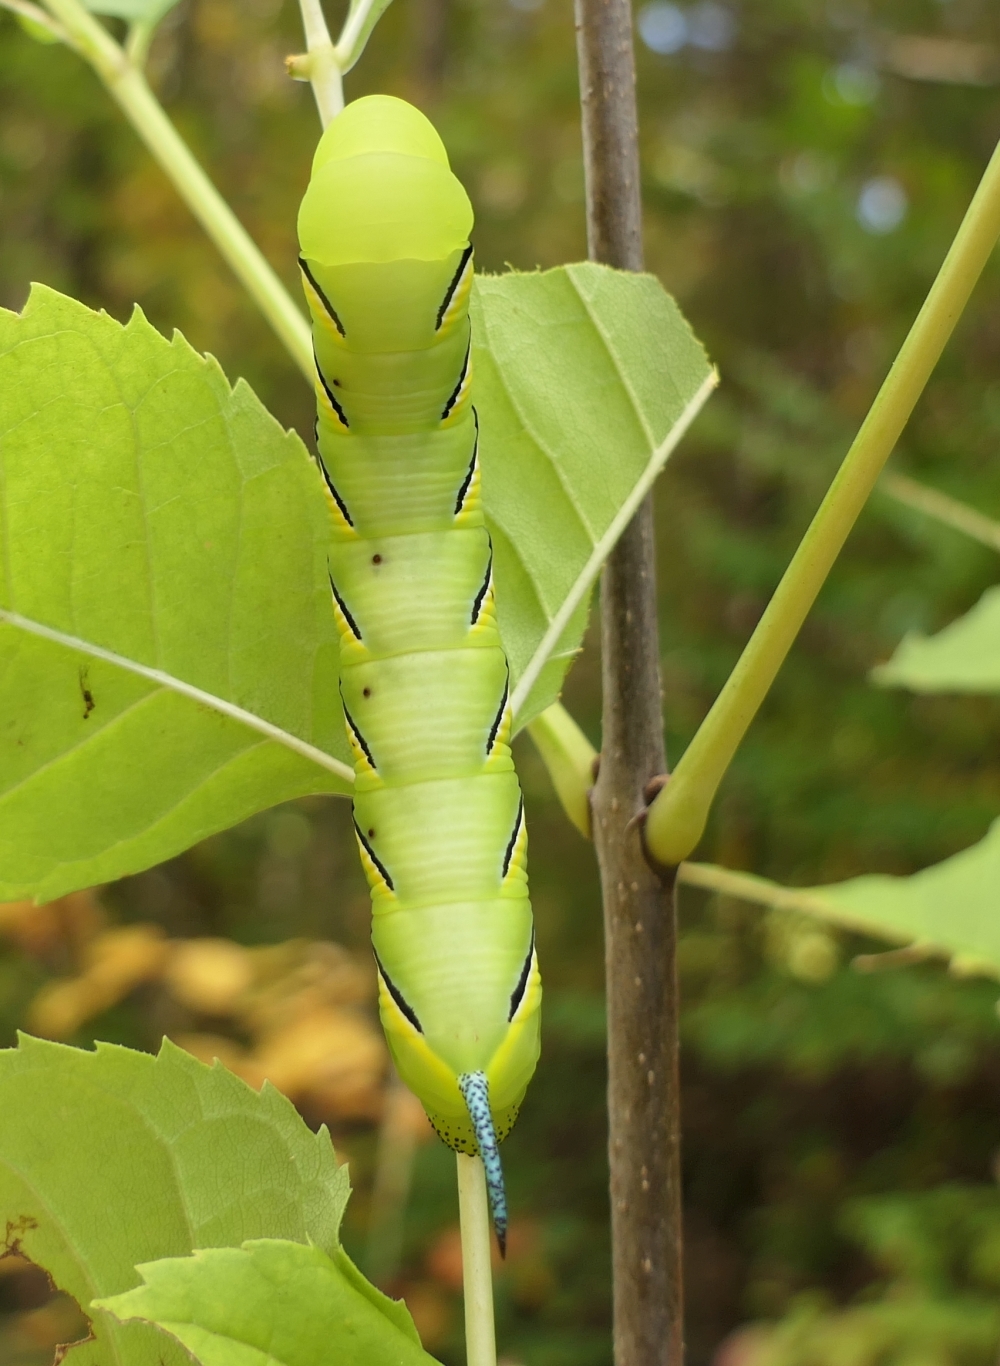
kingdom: Animalia
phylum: Arthropoda
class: Insecta
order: Lepidoptera
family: Sphingidae
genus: Sphinx
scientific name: Sphinx kalmiae
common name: Laurel sphinx
